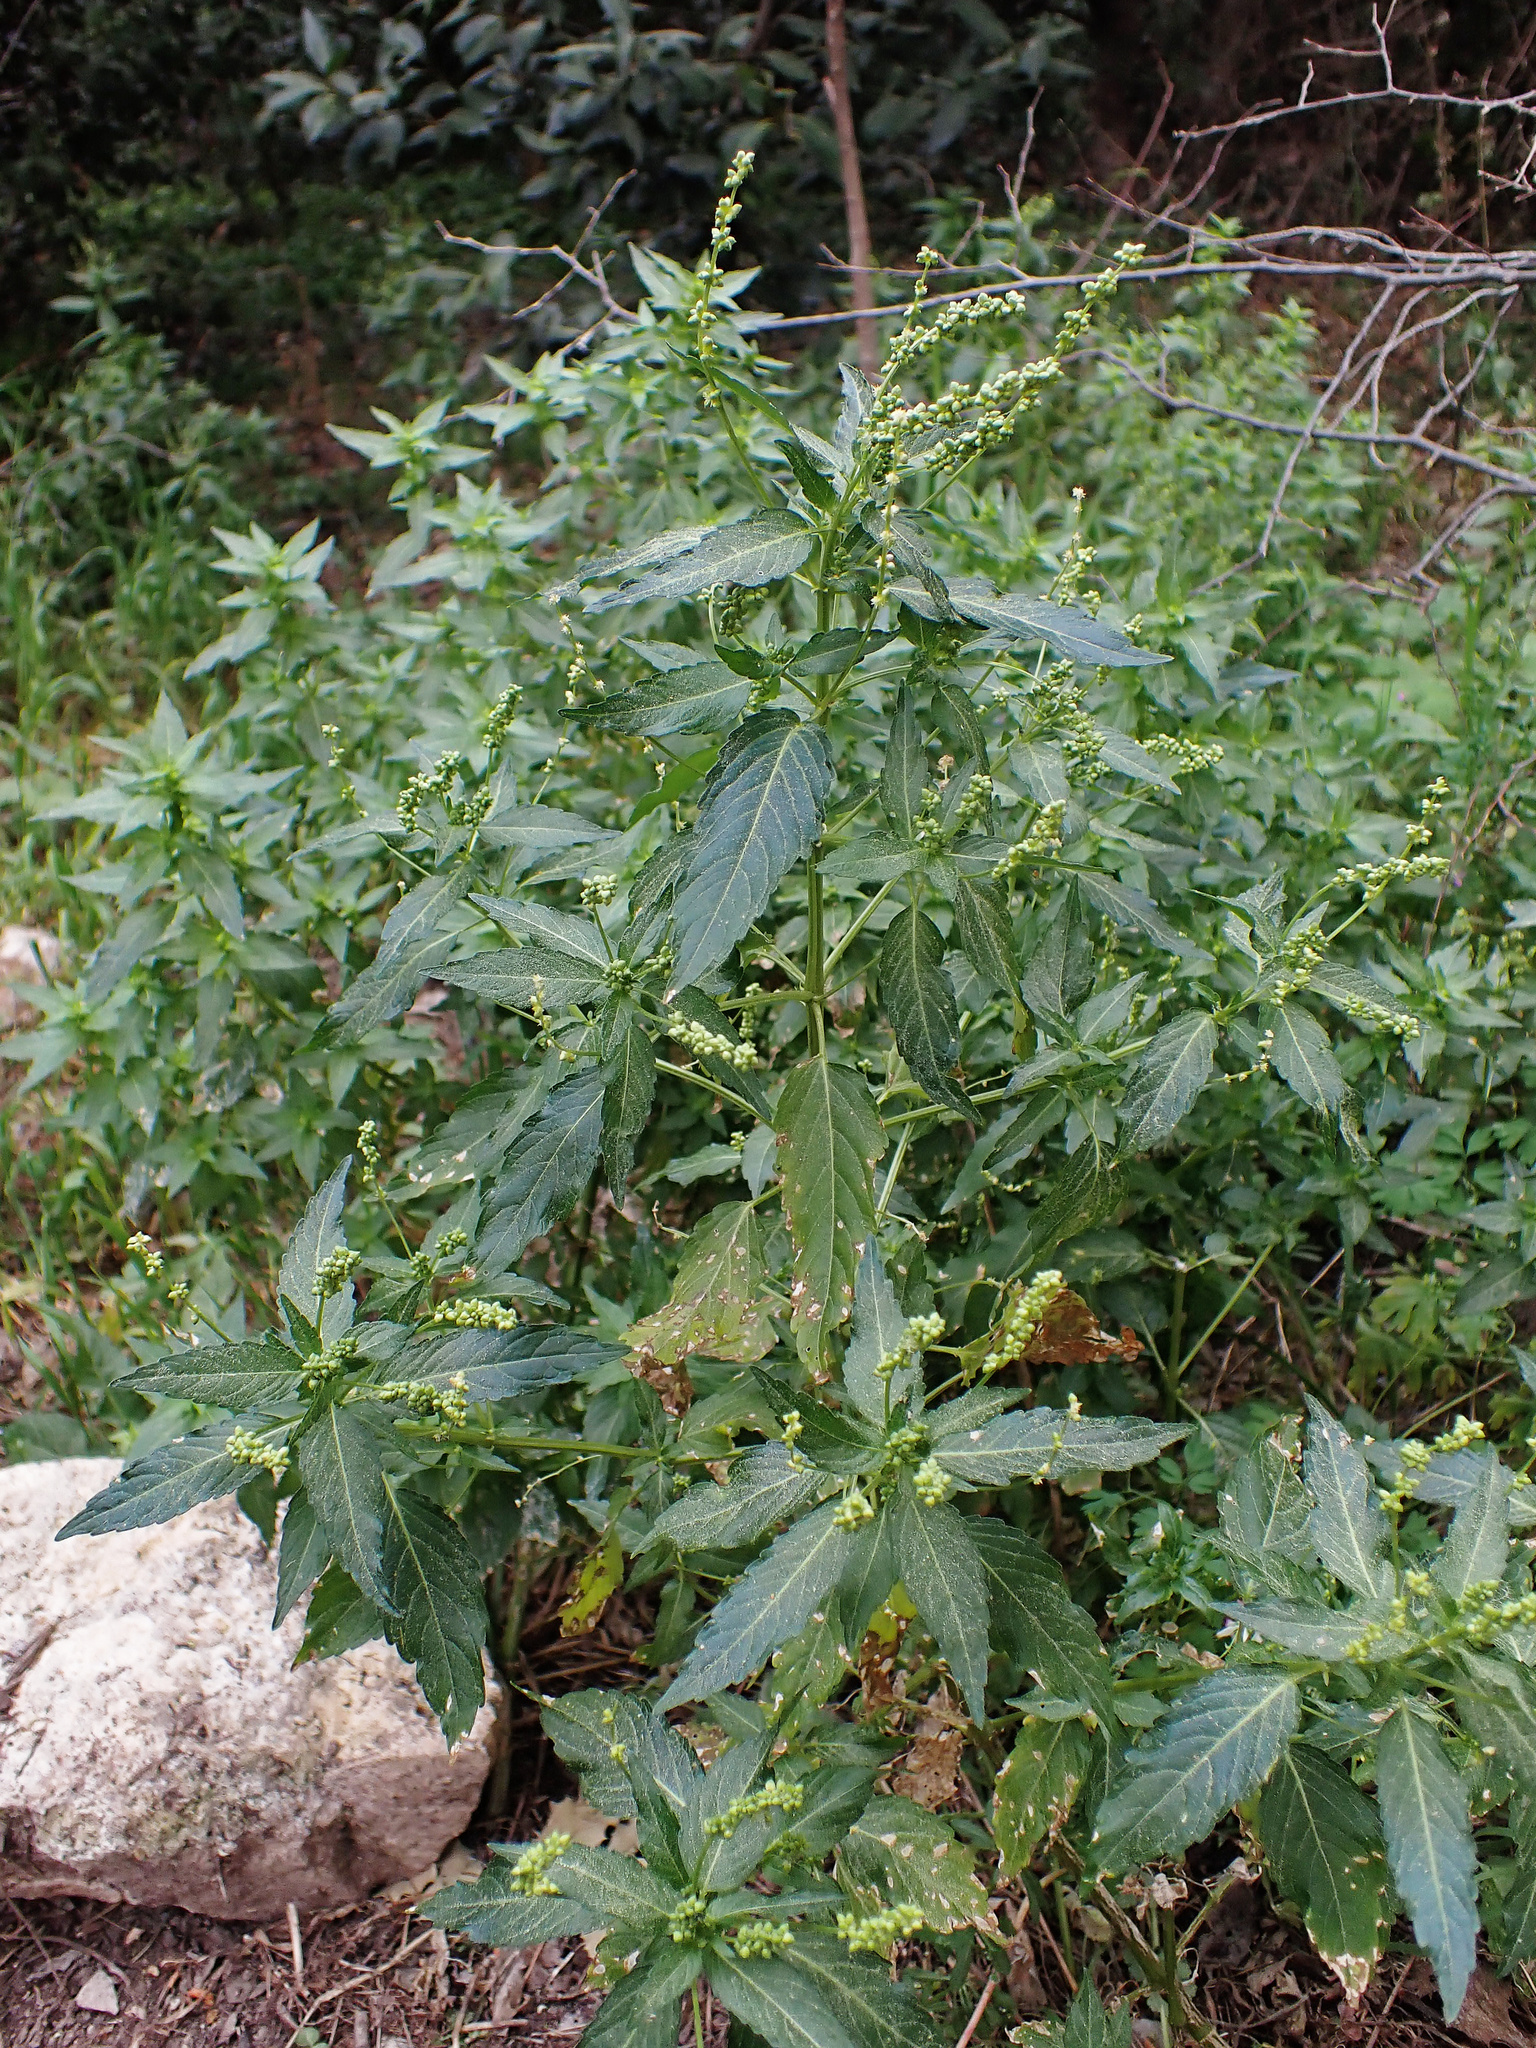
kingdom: Plantae
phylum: Tracheophyta
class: Magnoliopsida
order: Malpighiales
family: Euphorbiaceae
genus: Mercurialis
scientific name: Mercurialis annua
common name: Annual mercury
